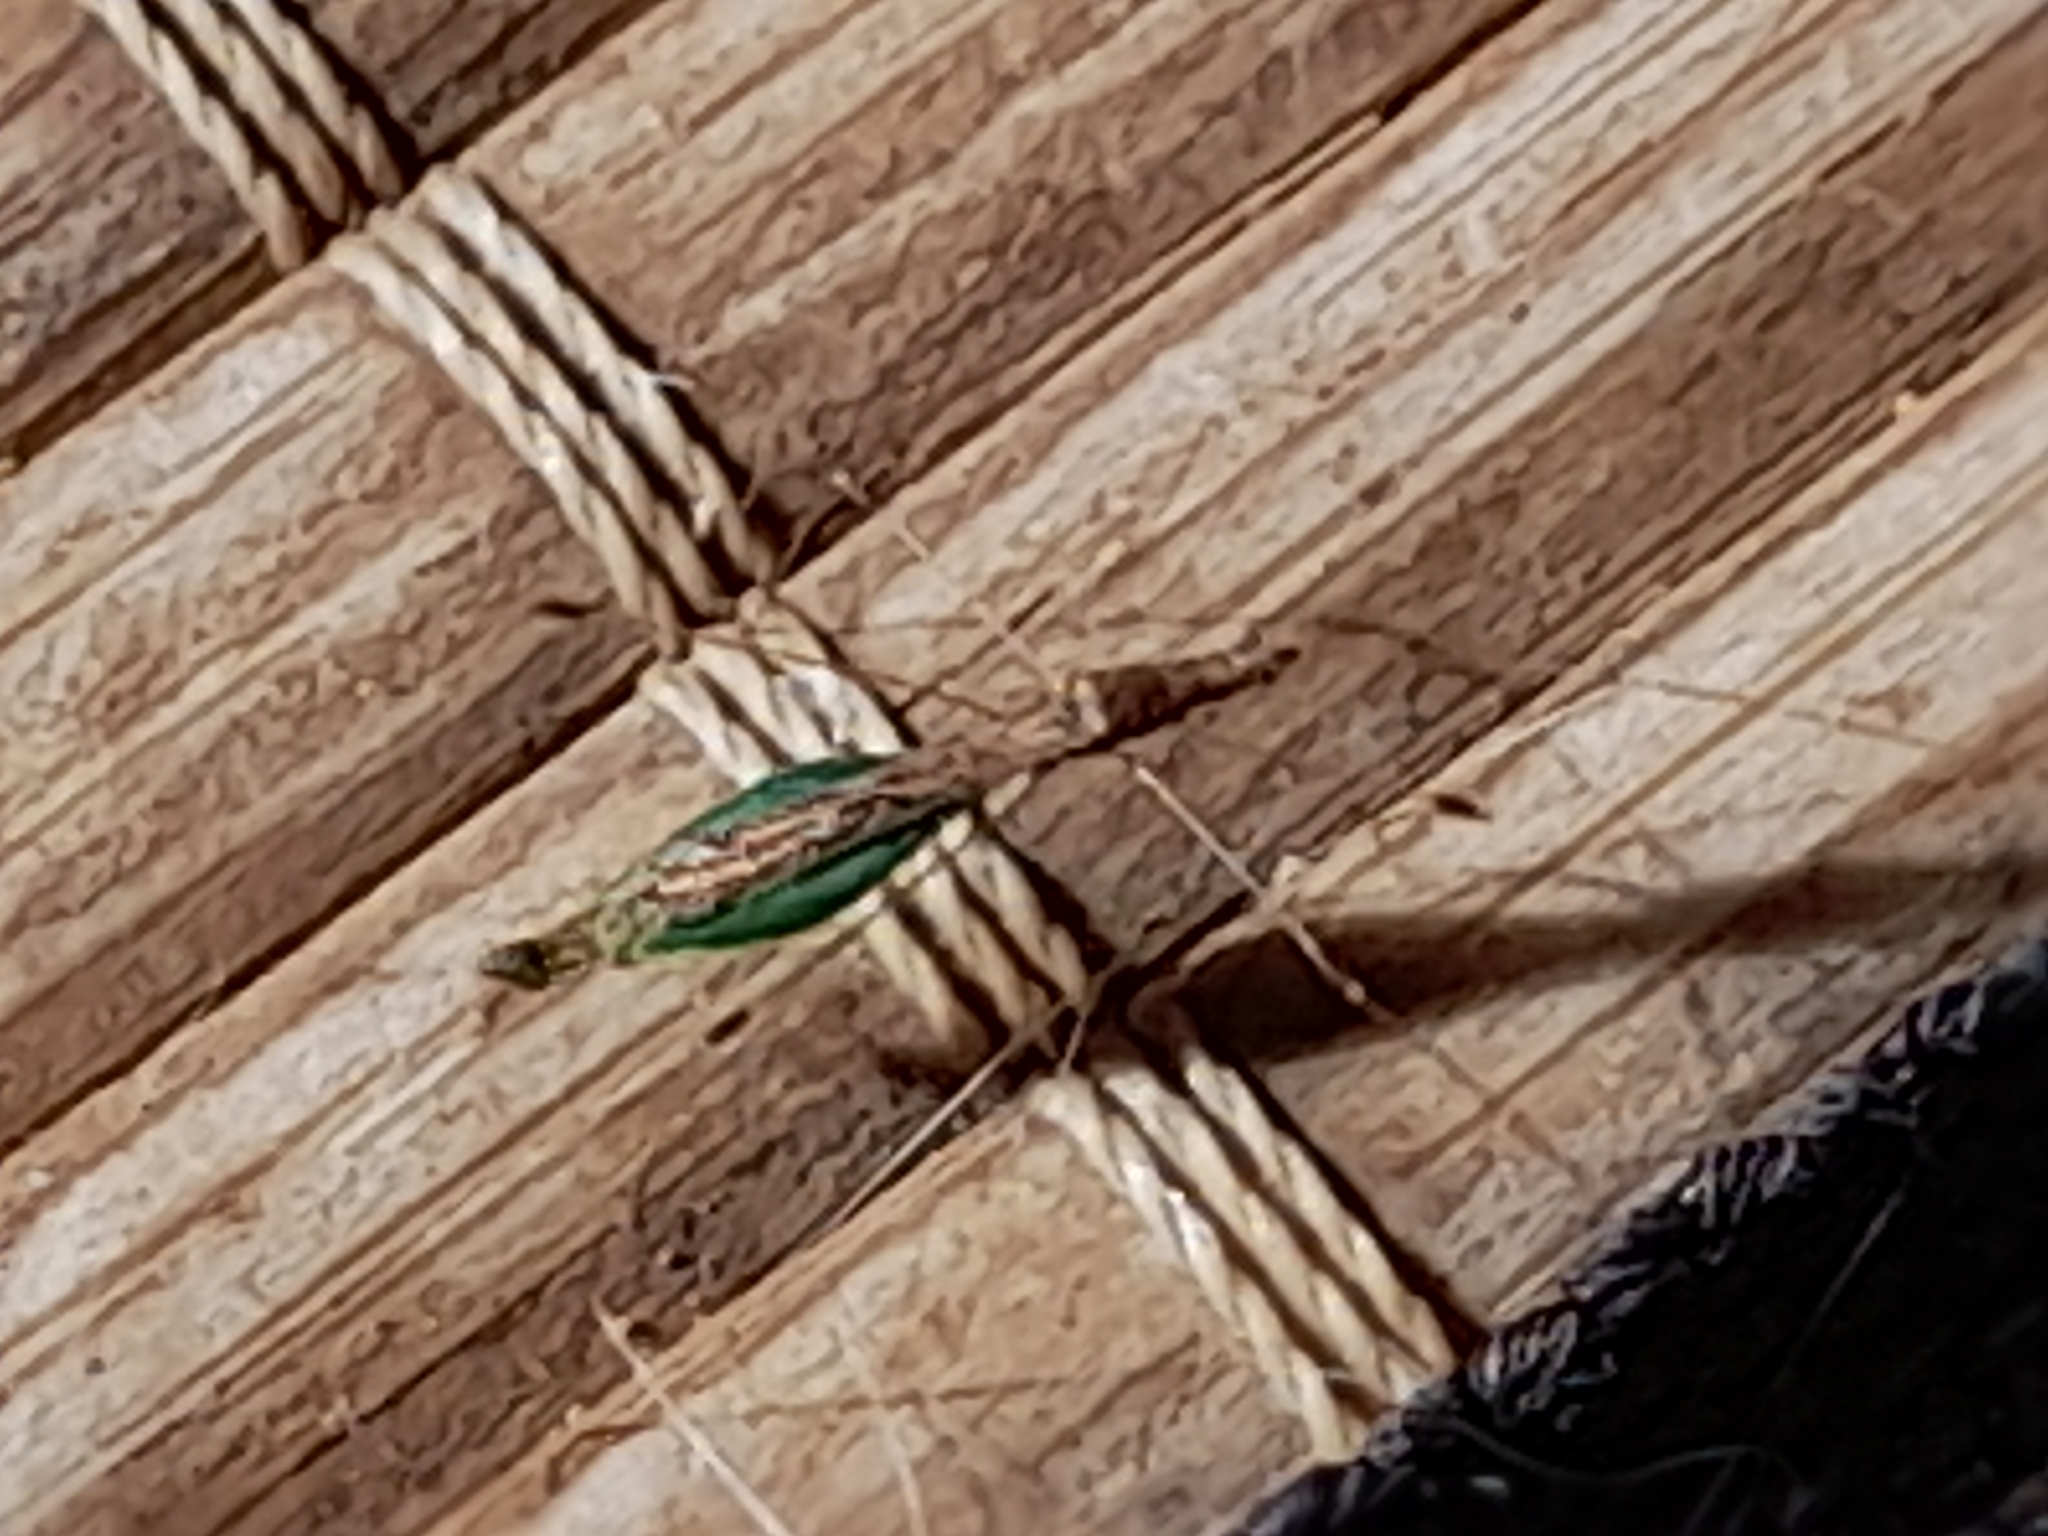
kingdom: Animalia
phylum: Arthropoda
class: Insecta
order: Hemiptera
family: Berytidae
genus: Apoplymus
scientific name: Apoplymus pectoralis
